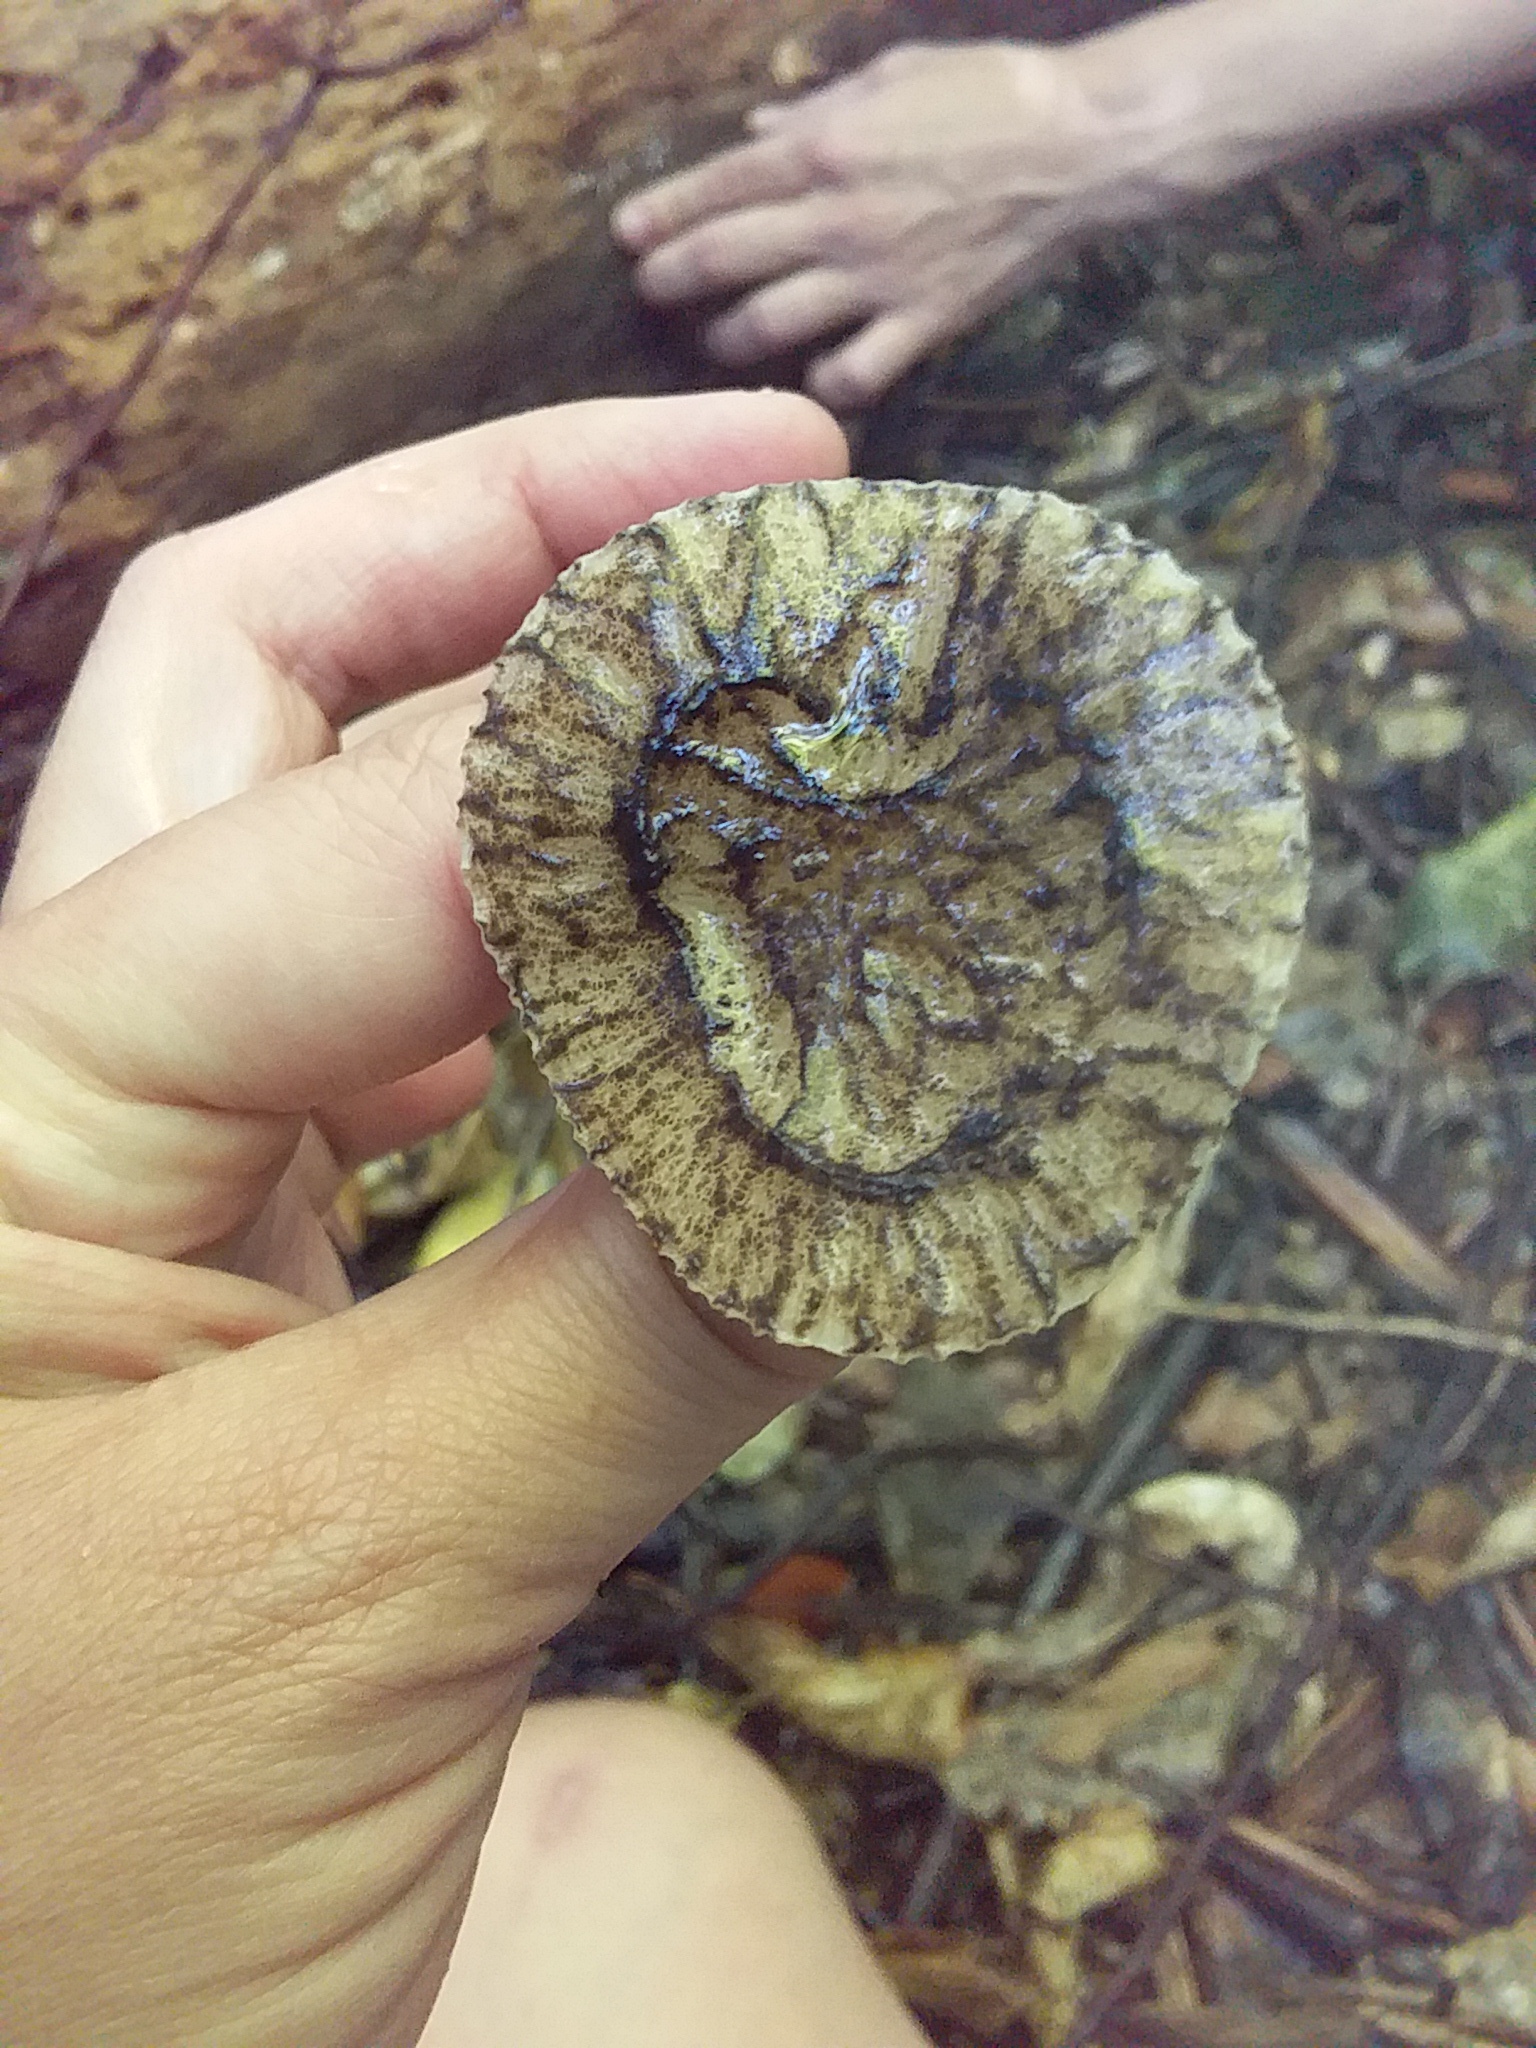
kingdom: Fungi
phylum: Basidiomycota
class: Agaricomycetes
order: Agaricales
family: Pluteaceae
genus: Pluteus
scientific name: Pluteus readiarum
